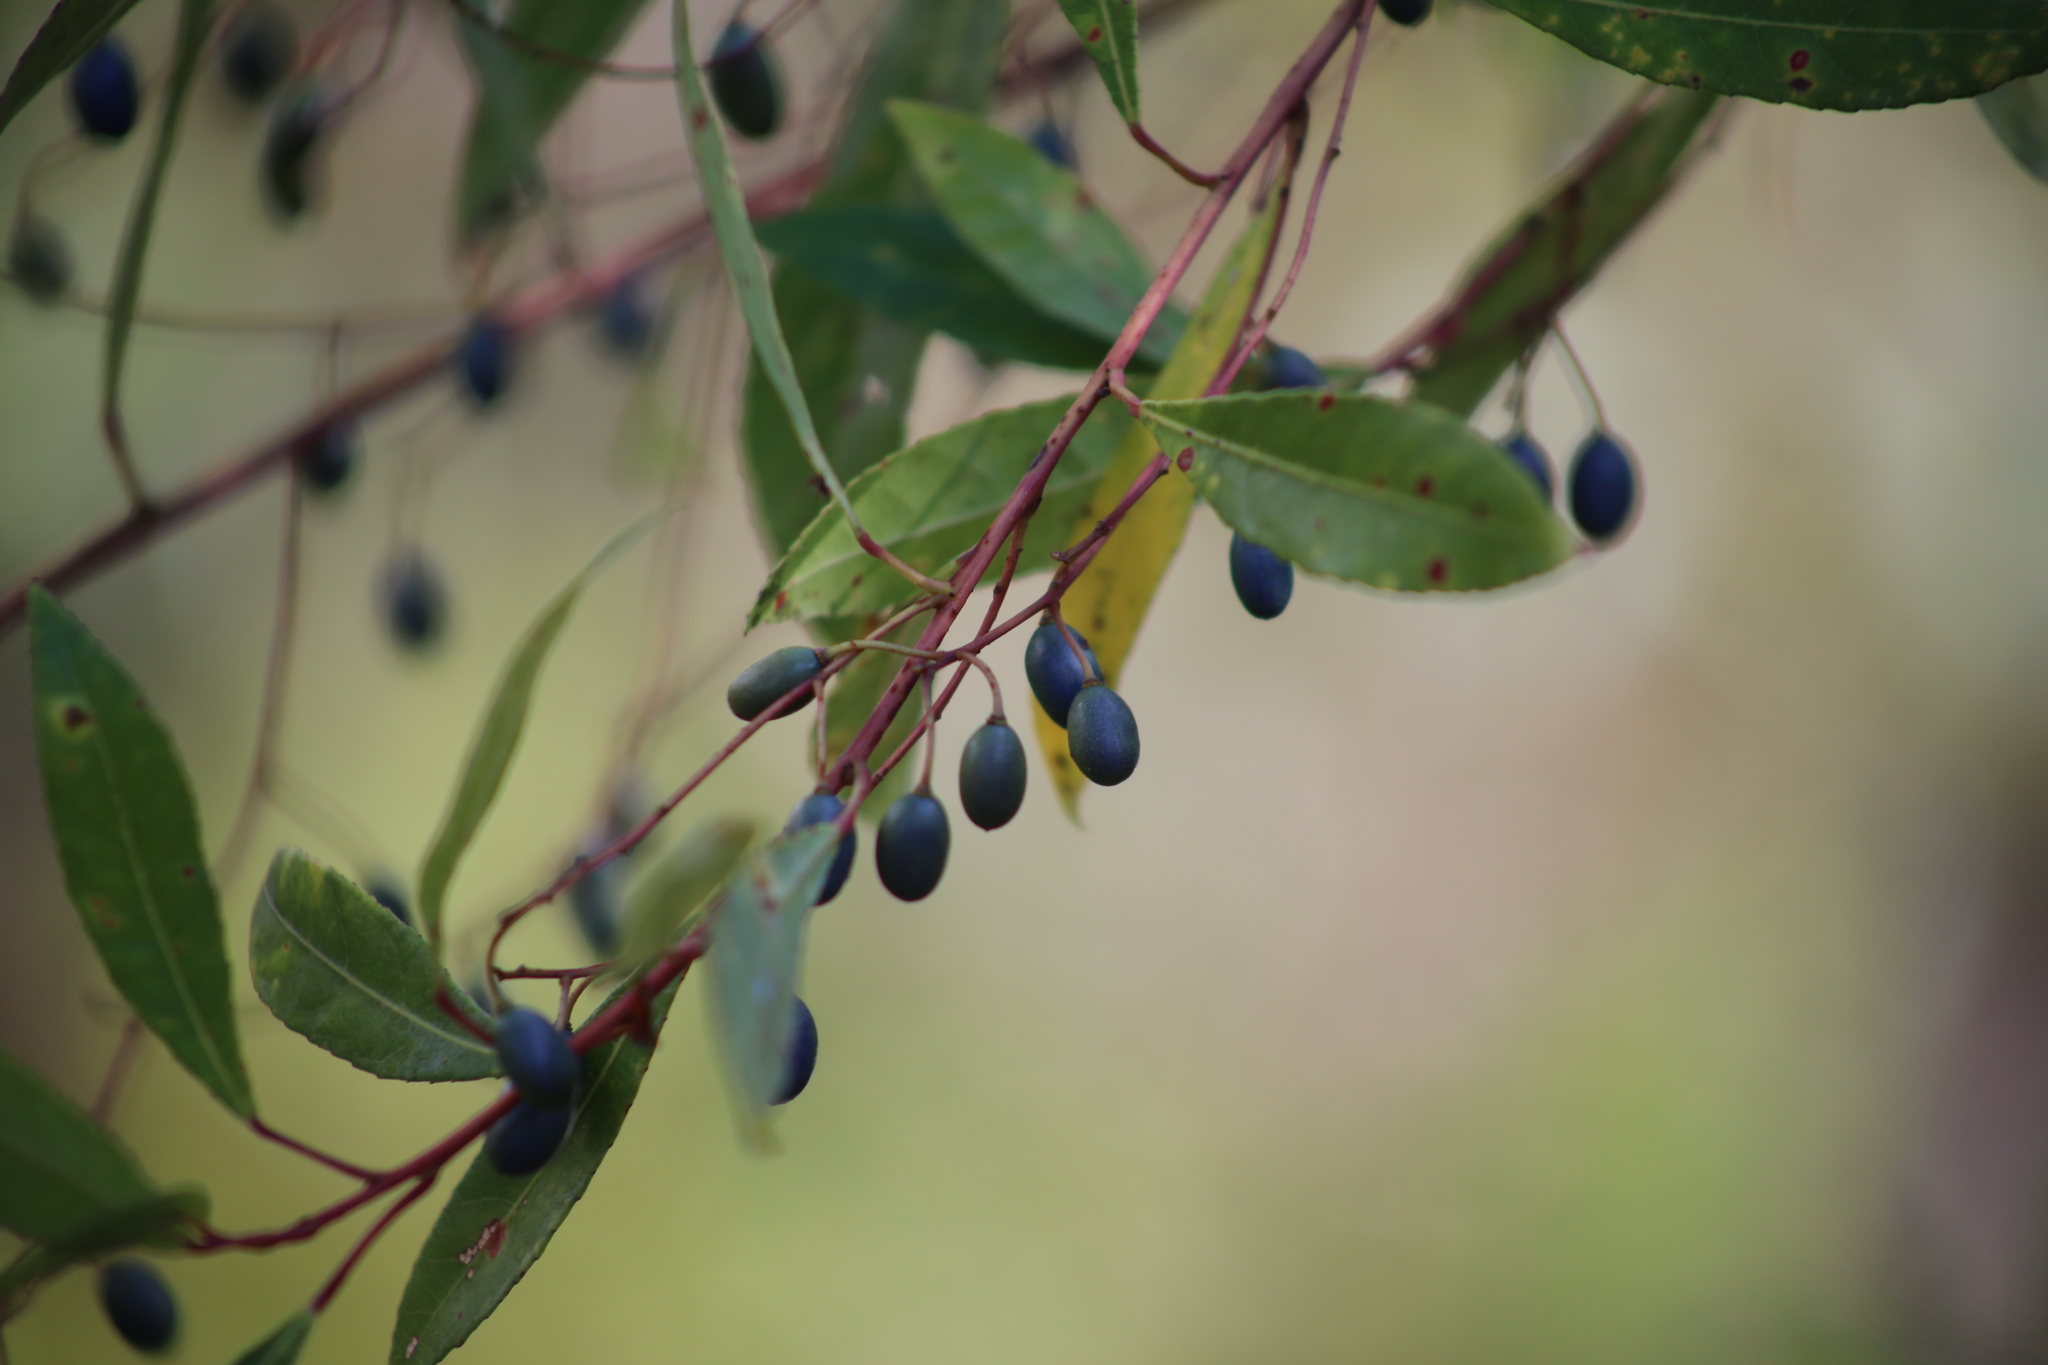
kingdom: Plantae
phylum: Tracheophyta
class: Magnoliopsida
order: Oxalidales
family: Elaeocarpaceae
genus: Elaeocarpus
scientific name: Elaeocarpus reticulatus
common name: Ash quandong
